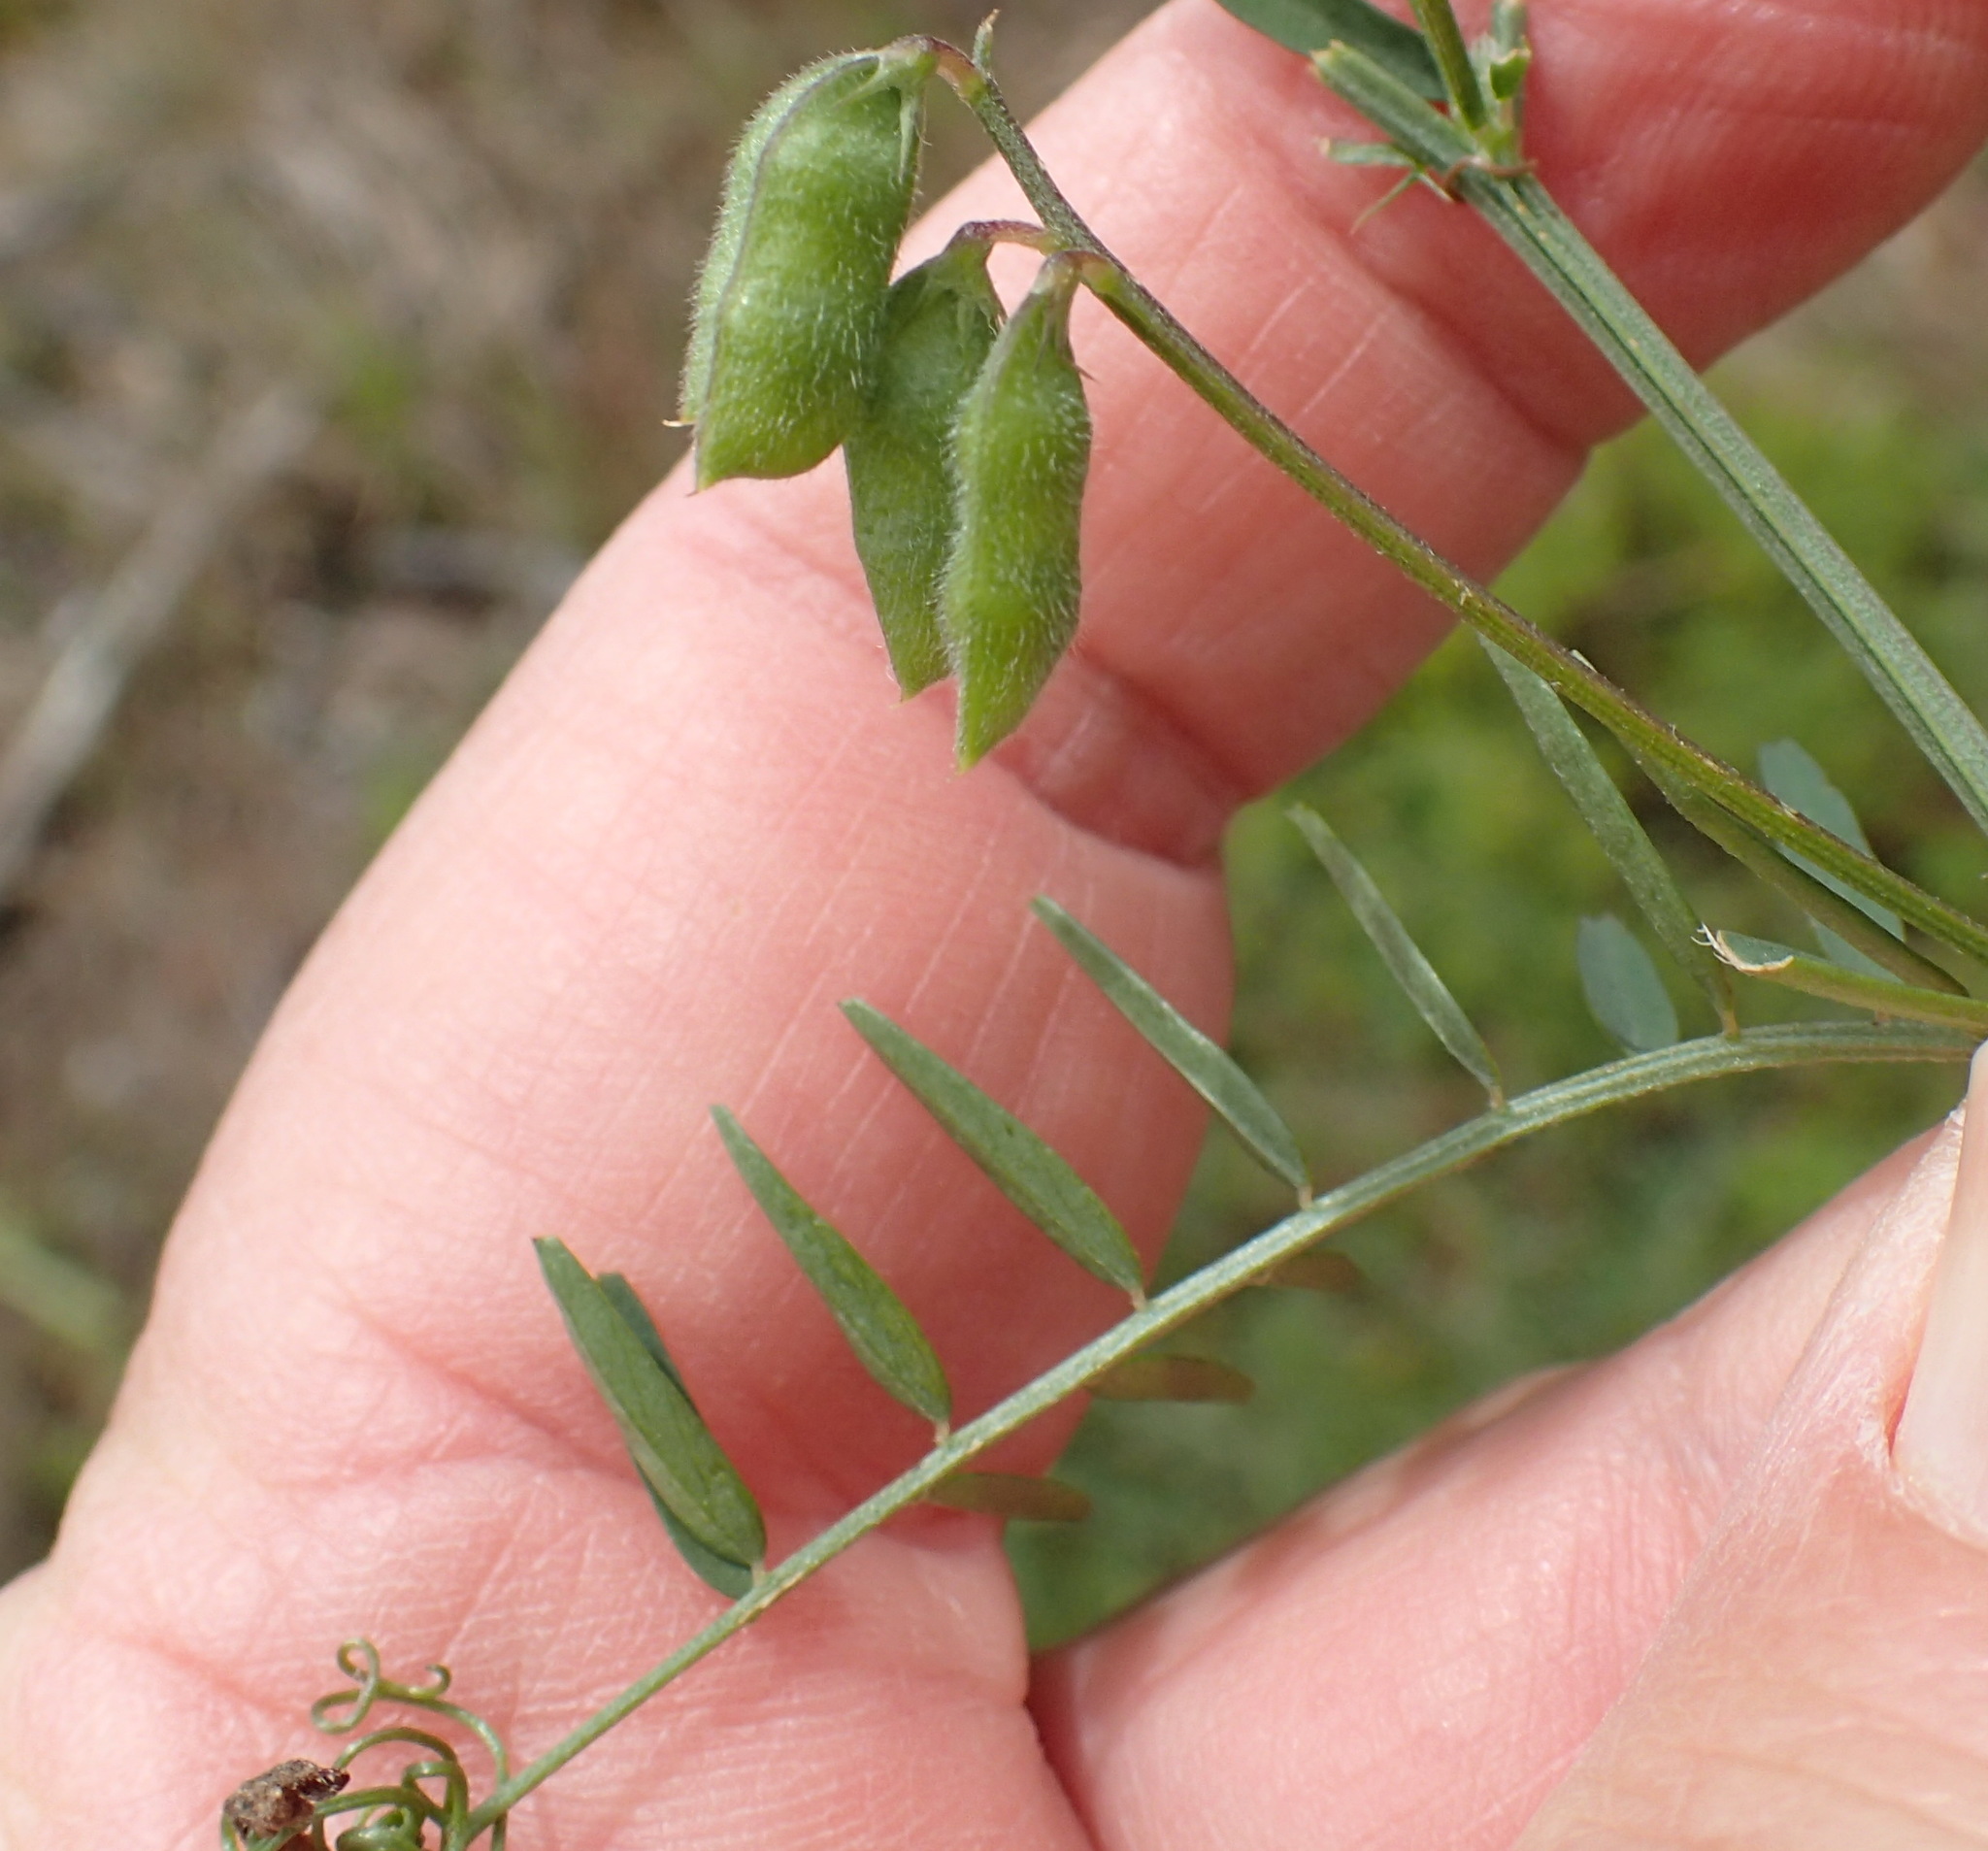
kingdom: Plantae
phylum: Tracheophyta
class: Magnoliopsida
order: Fabales
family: Fabaceae
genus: Vicia
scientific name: Vicia hirsuta
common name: Tiny vetch
